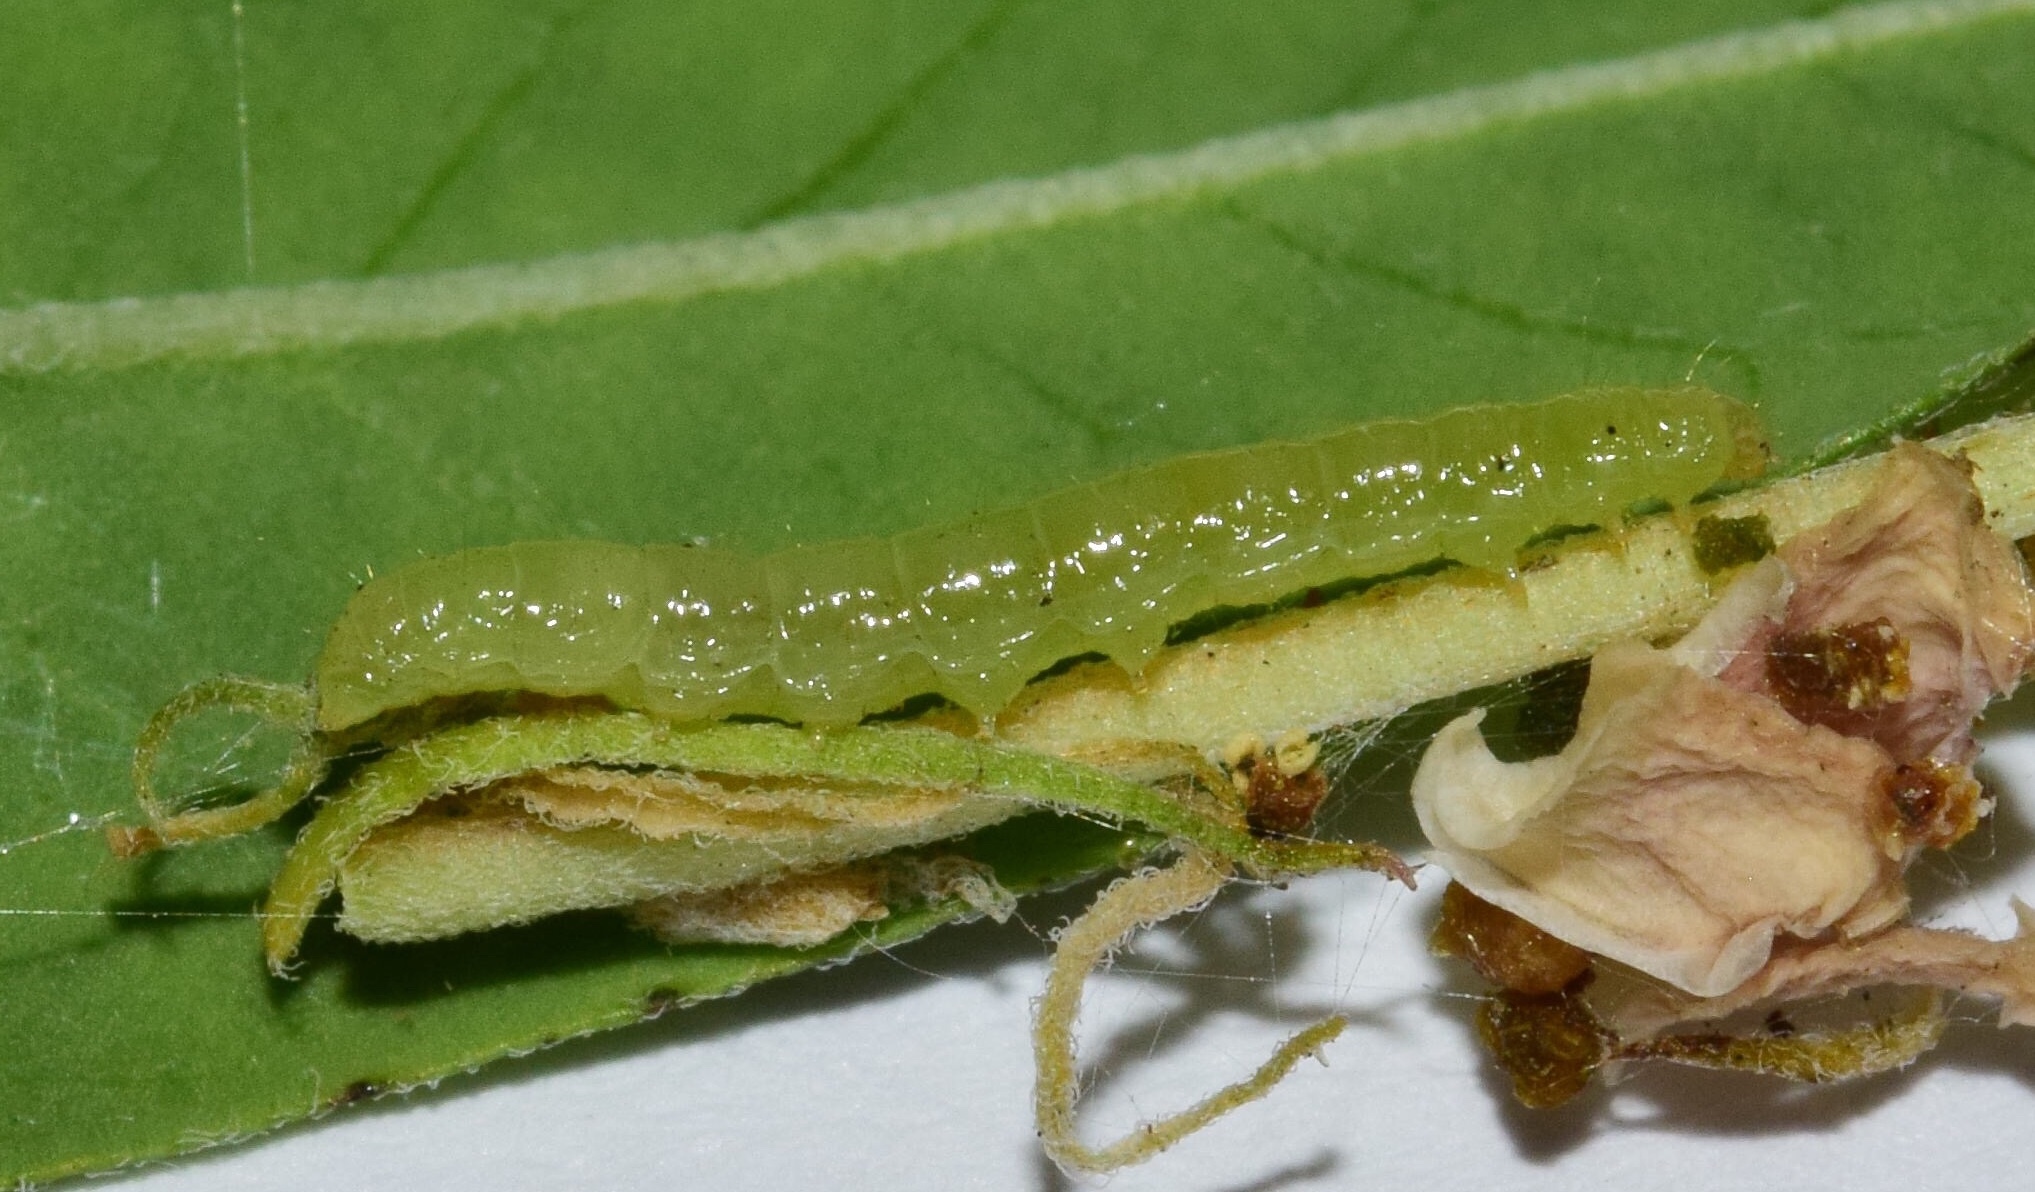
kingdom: Animalia
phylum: Arthropoda
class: Insecta
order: Lepidoptera
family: Crambidae
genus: Glyphodes
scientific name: Glyphodes onychinalis
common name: Swan plant moth
